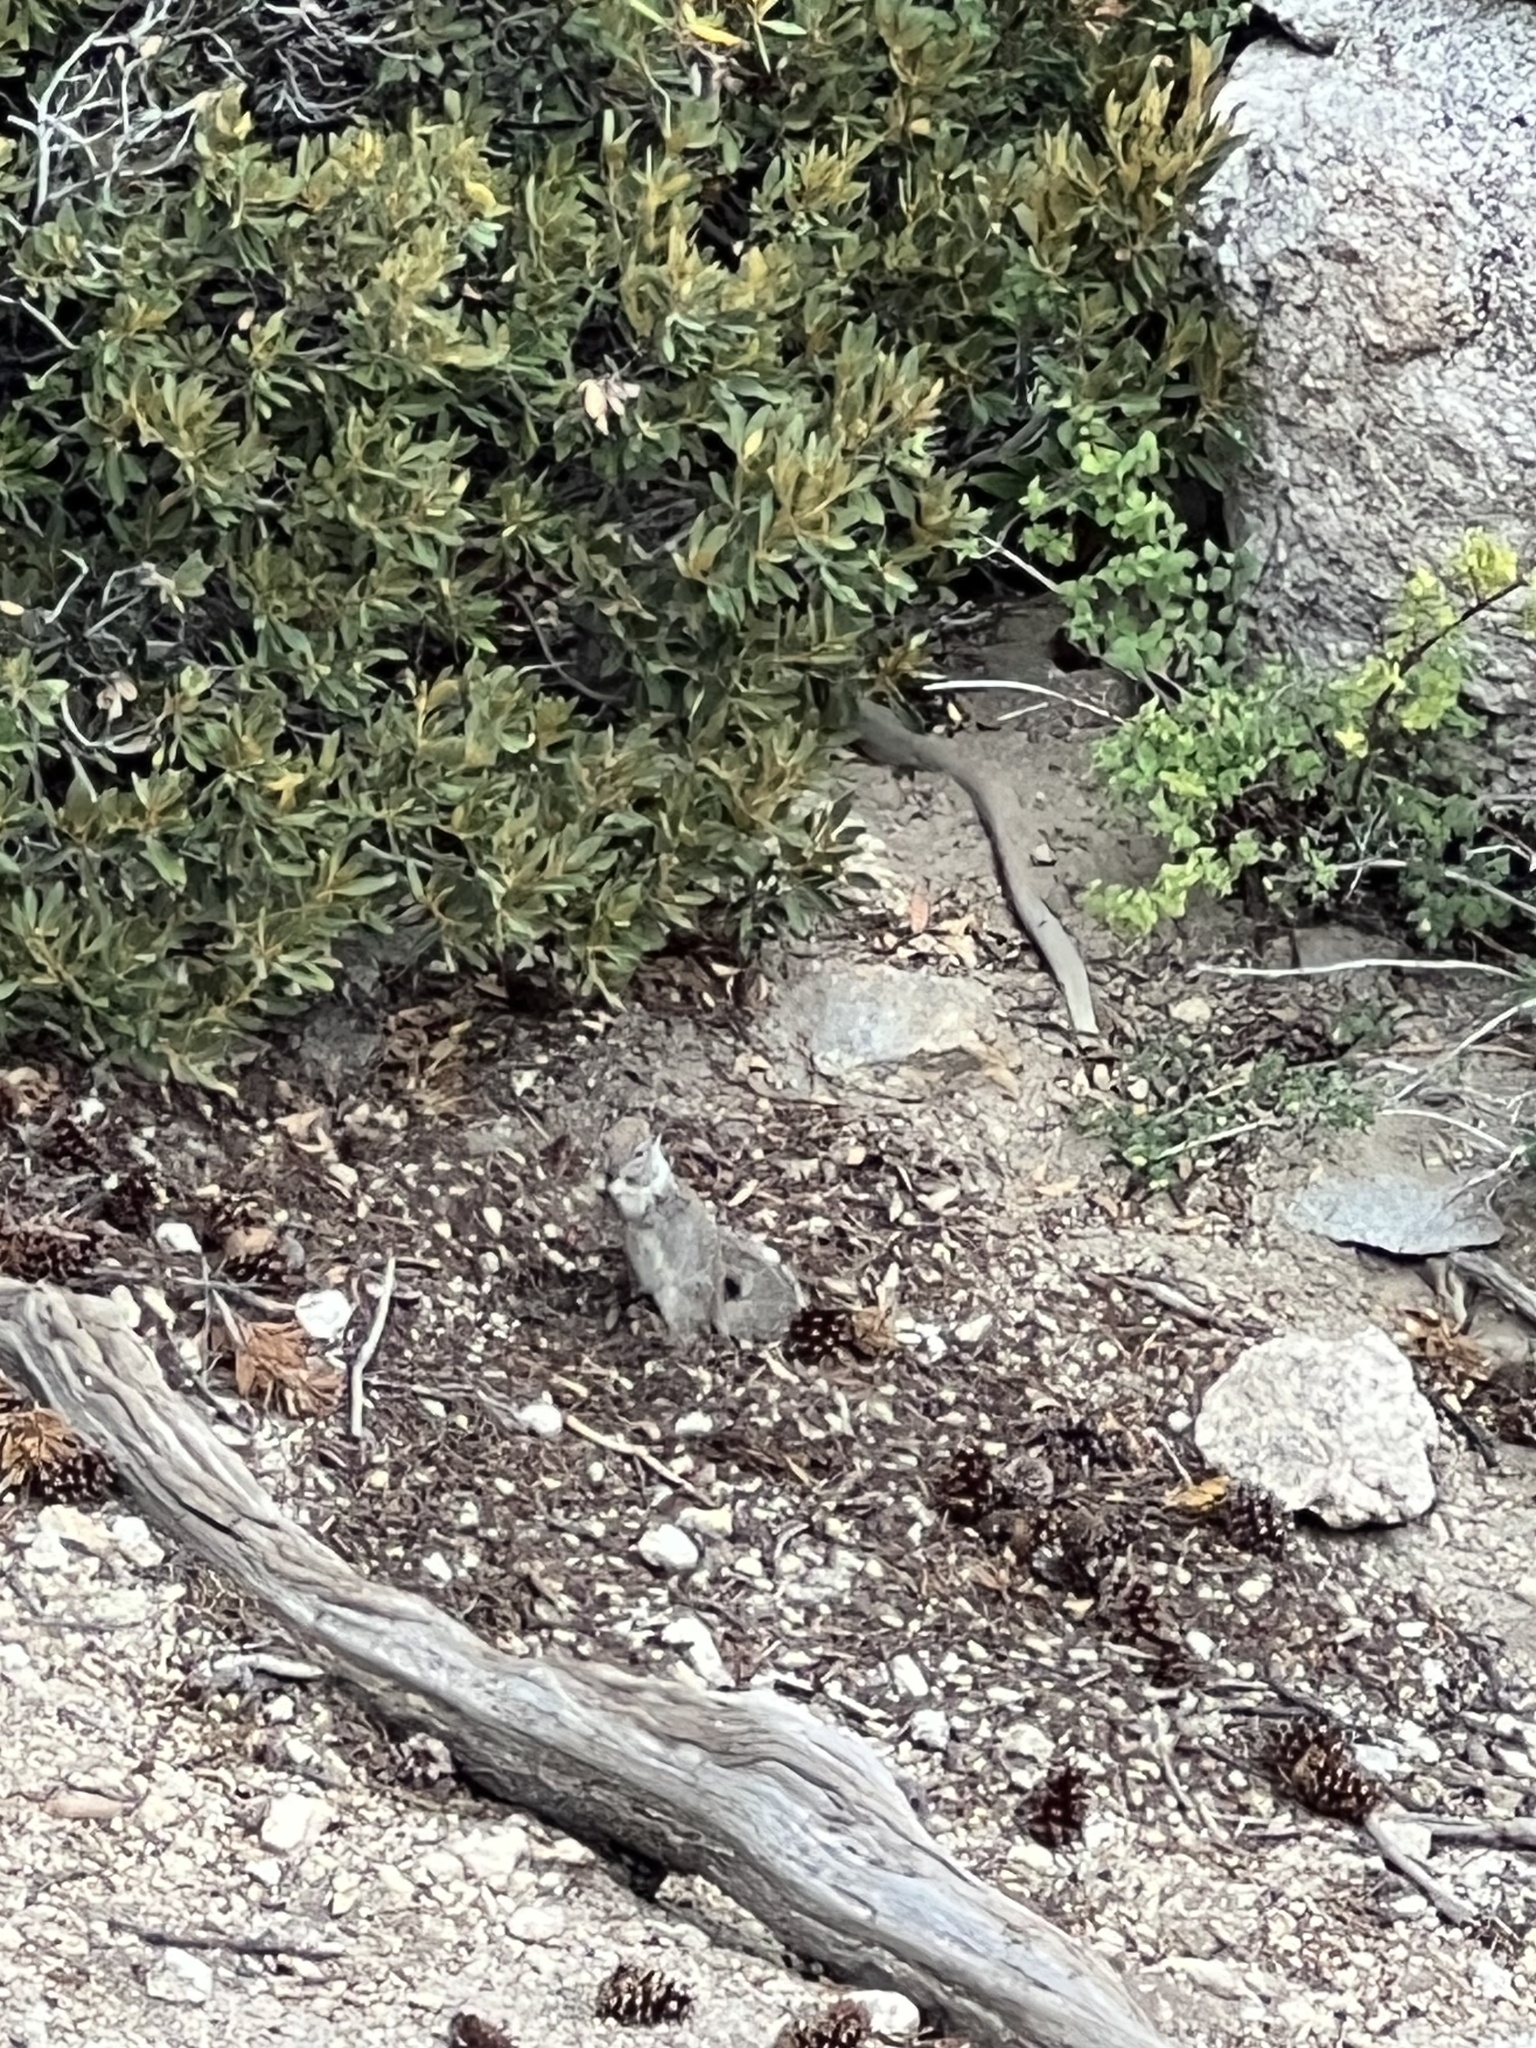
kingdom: Animalia
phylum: Chordata
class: Mammalia
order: Rodentia
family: Sciuridae
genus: Otospermophilus
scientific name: Otospermophilus beecheyi
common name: California ground squirrel
